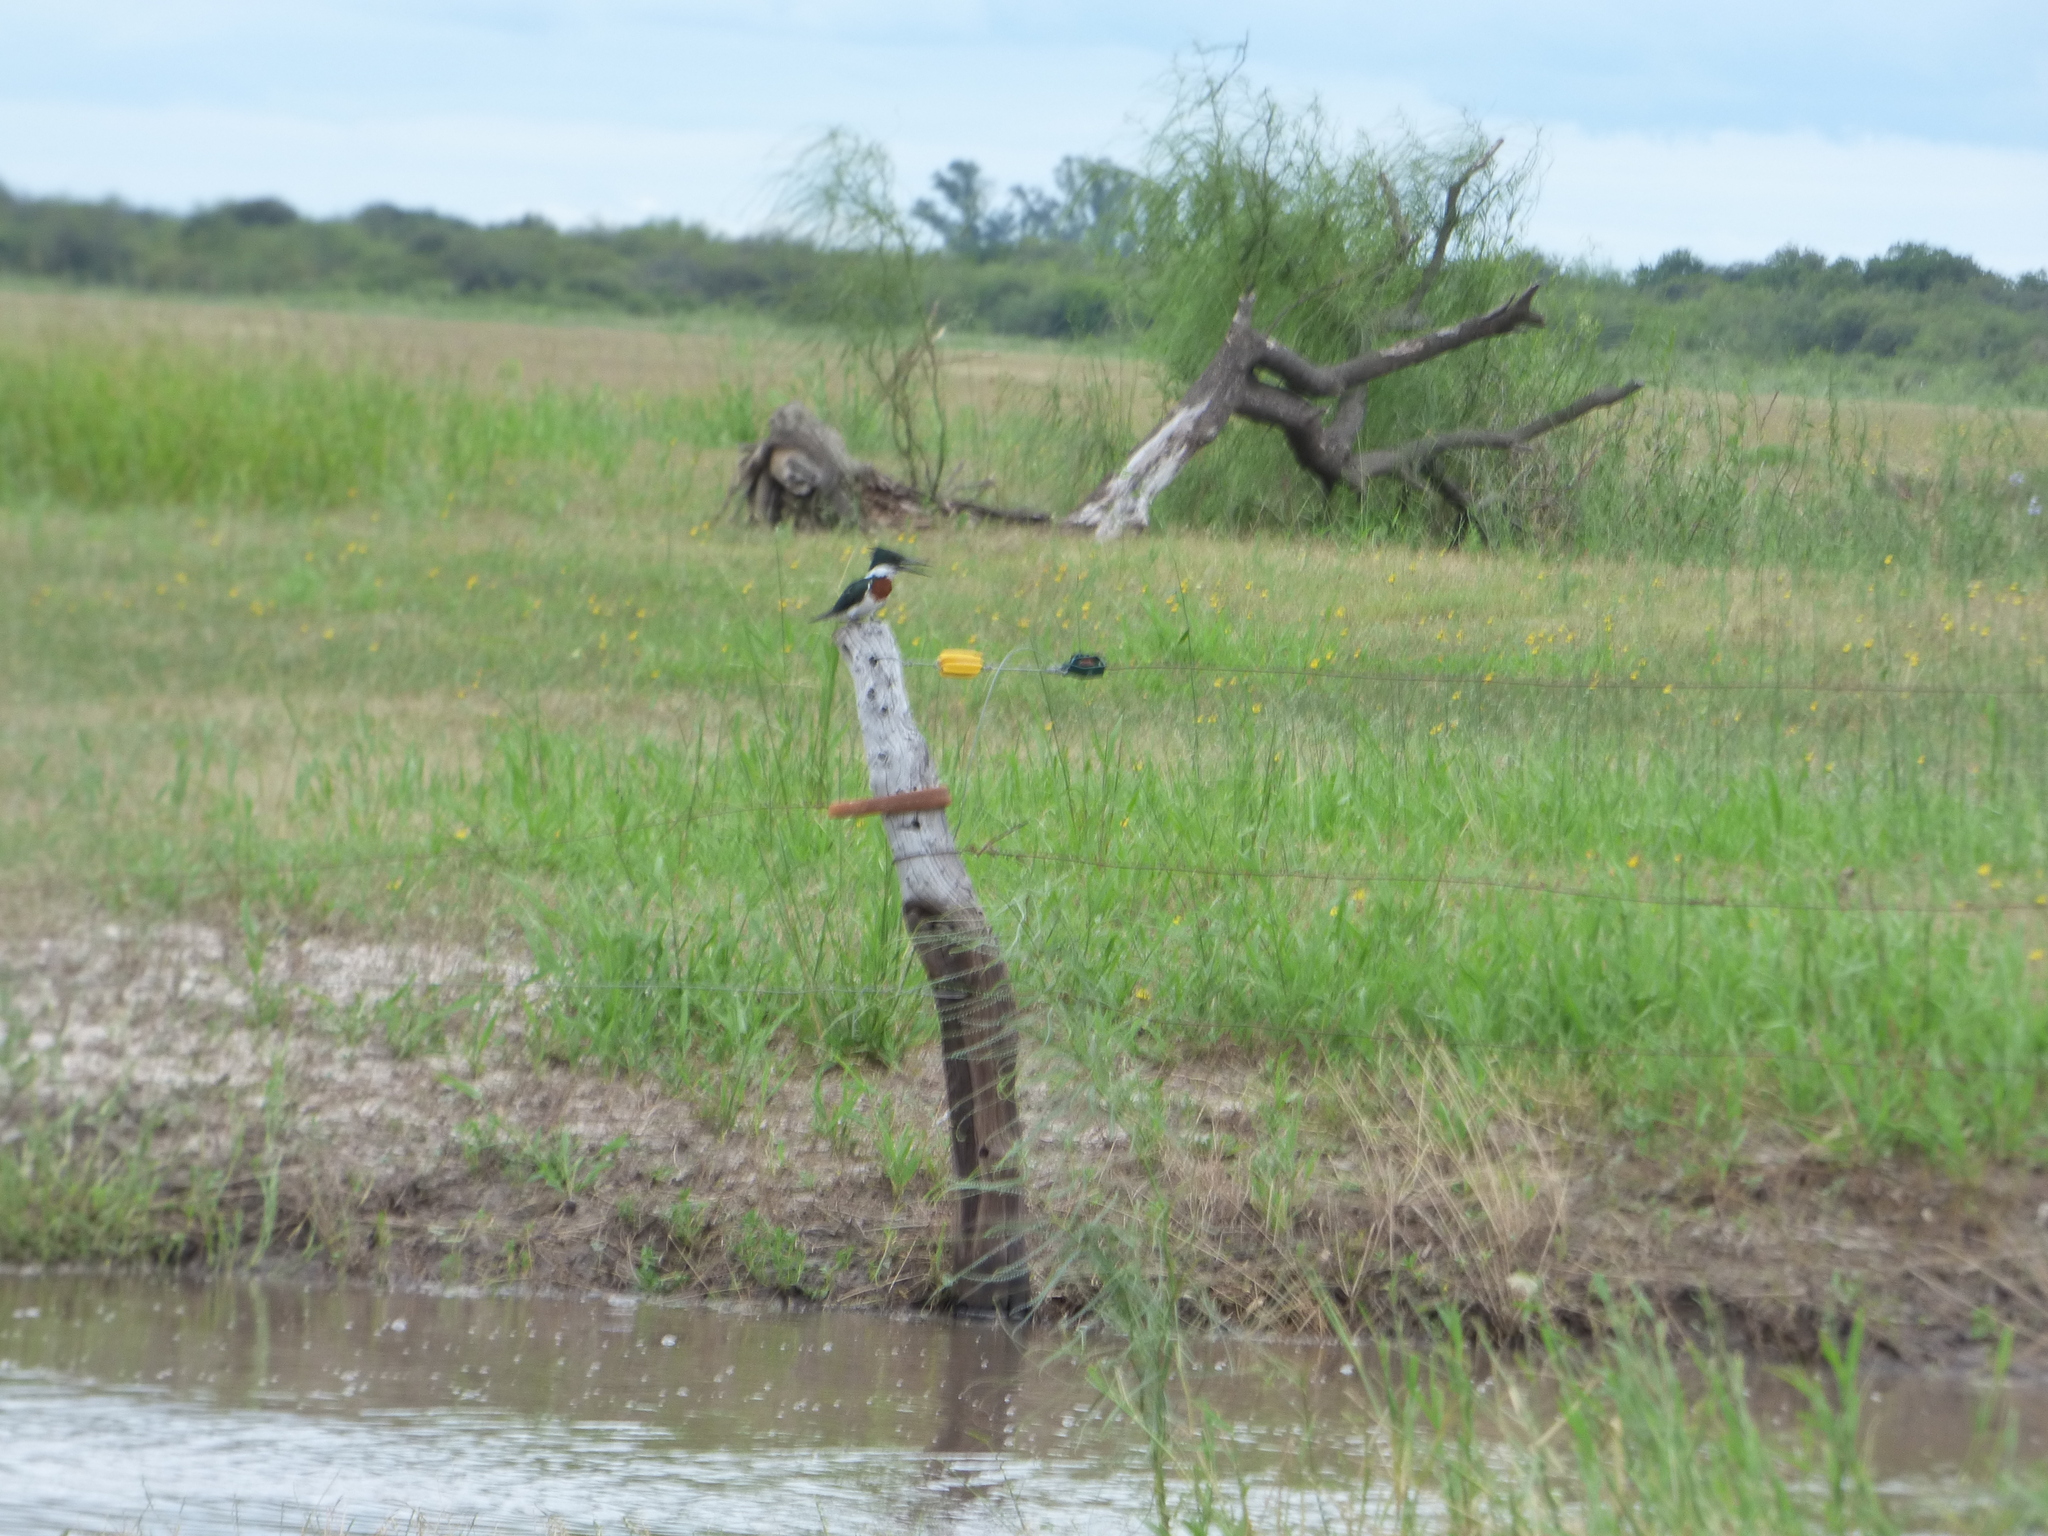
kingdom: Animalia
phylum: Chordata
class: Aves
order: Coraciiformes
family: Alcedinidae
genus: Chloroceryle
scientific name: Chloroceryle amazona
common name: Amazon kingfisher
